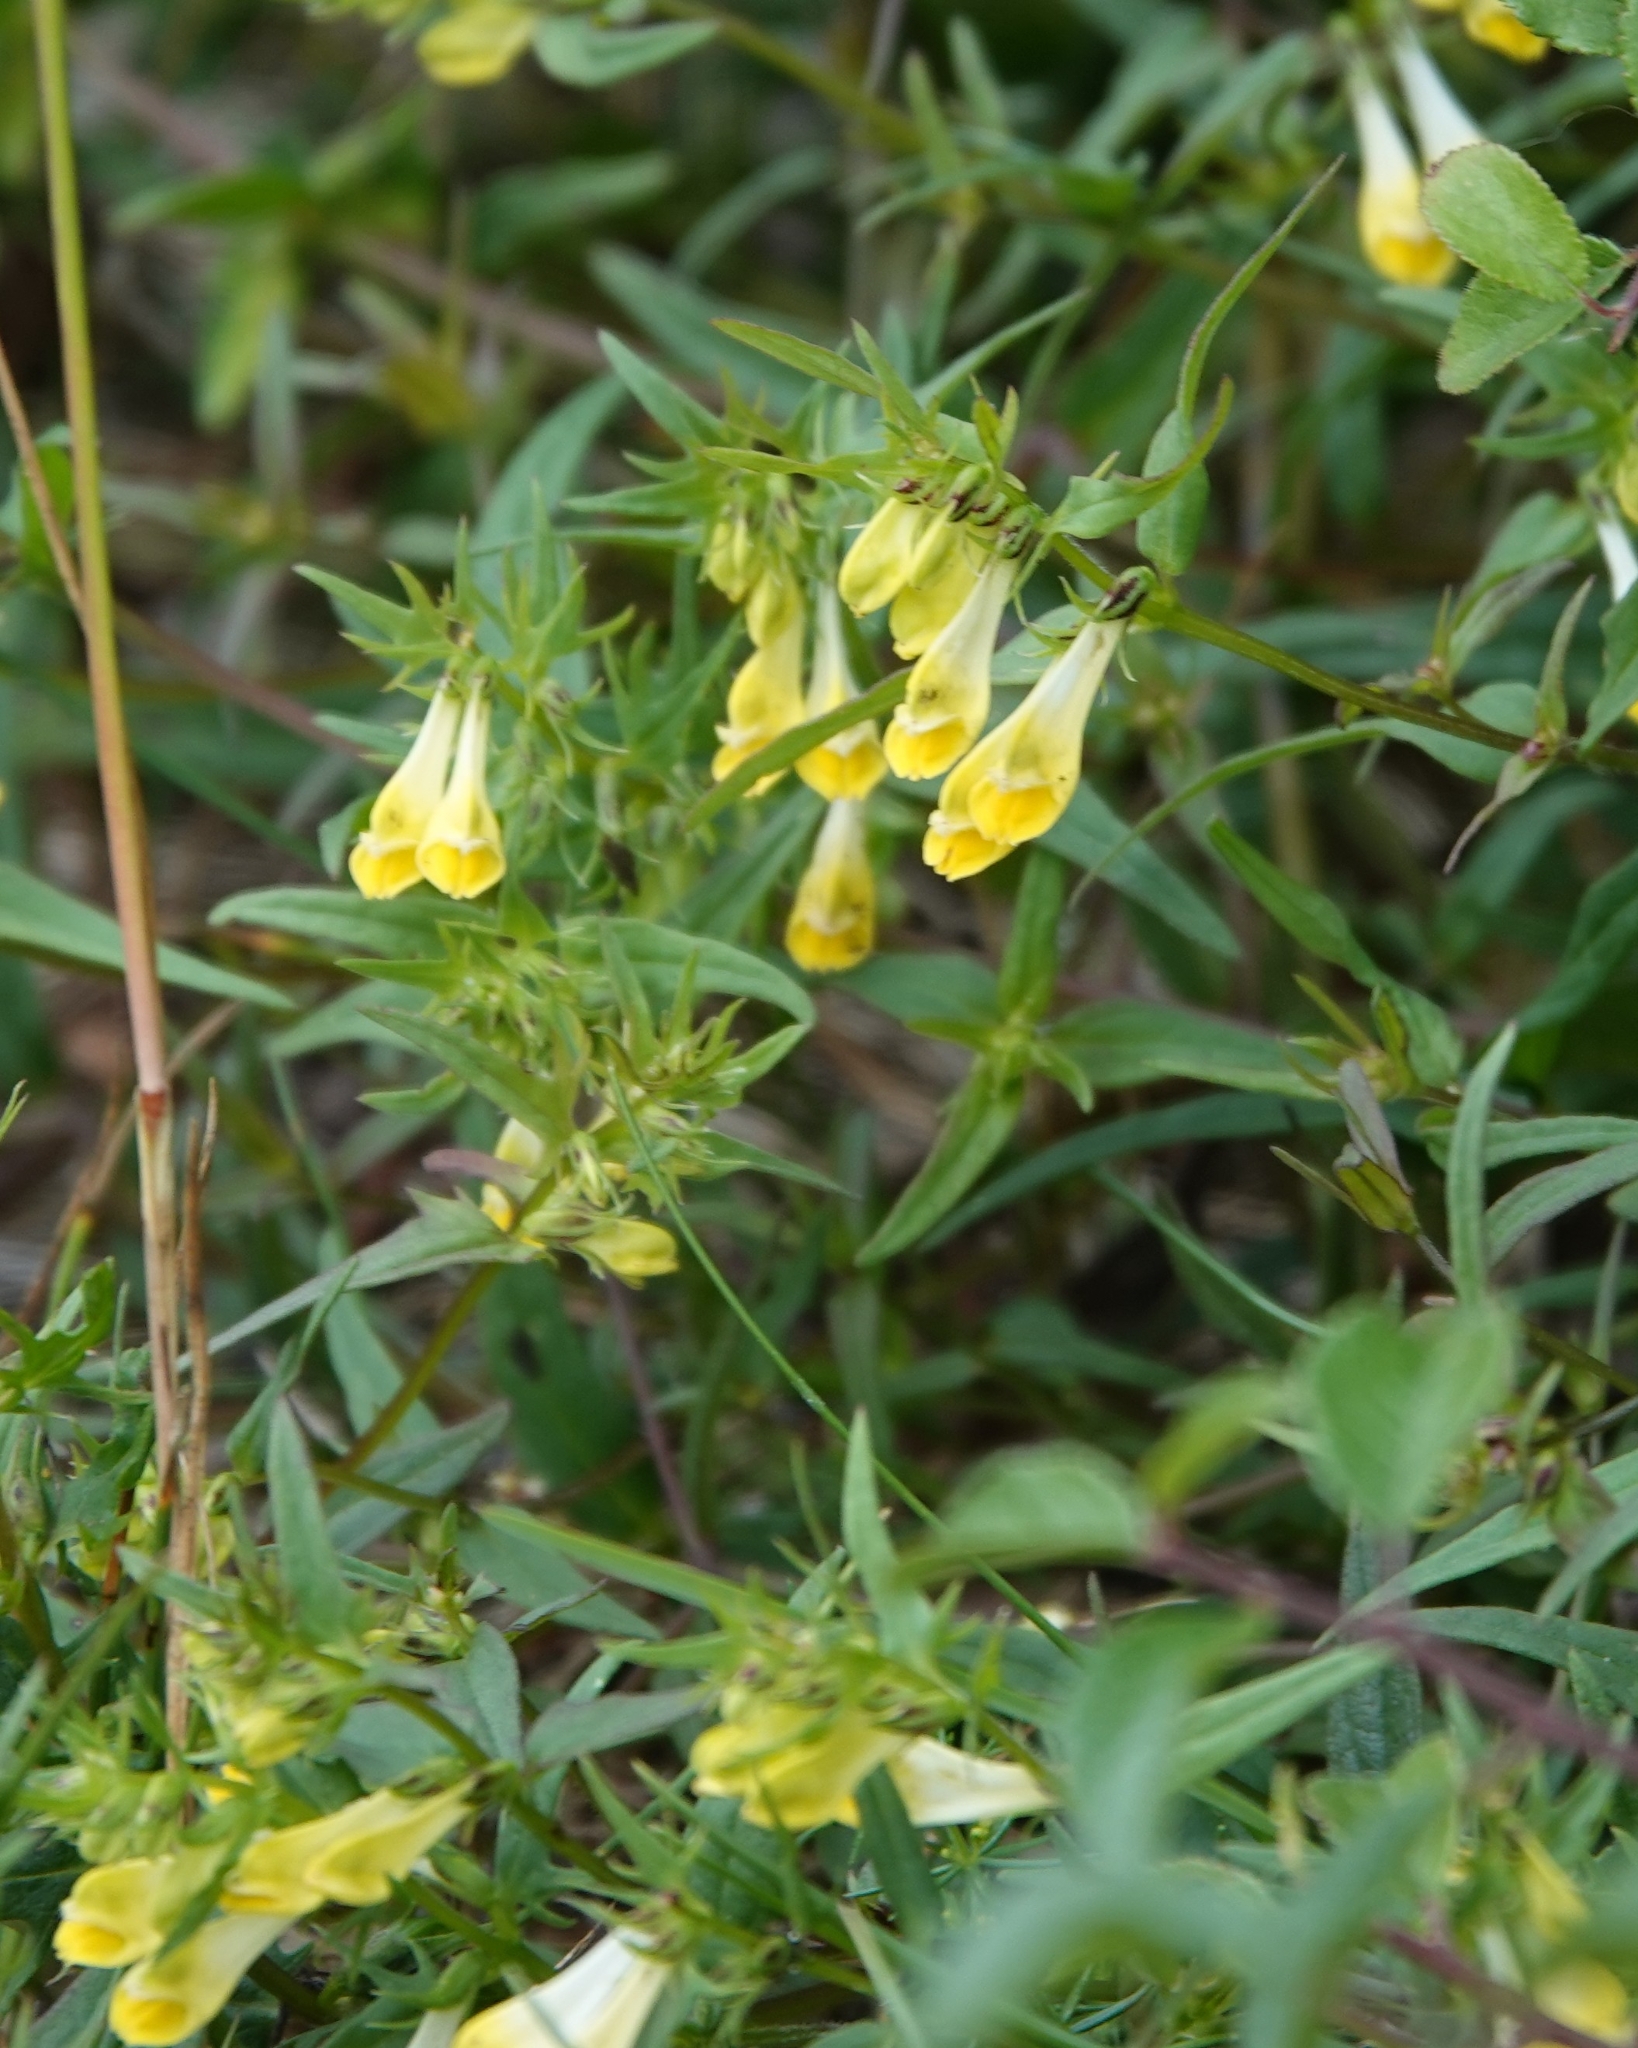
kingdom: Plantae
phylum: Tracheophyta
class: Magnoliopsida
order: Lamiales
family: Orobanchaceae
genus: Melampyrum
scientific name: Melampyrum pratense
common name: Common cow-wheat
